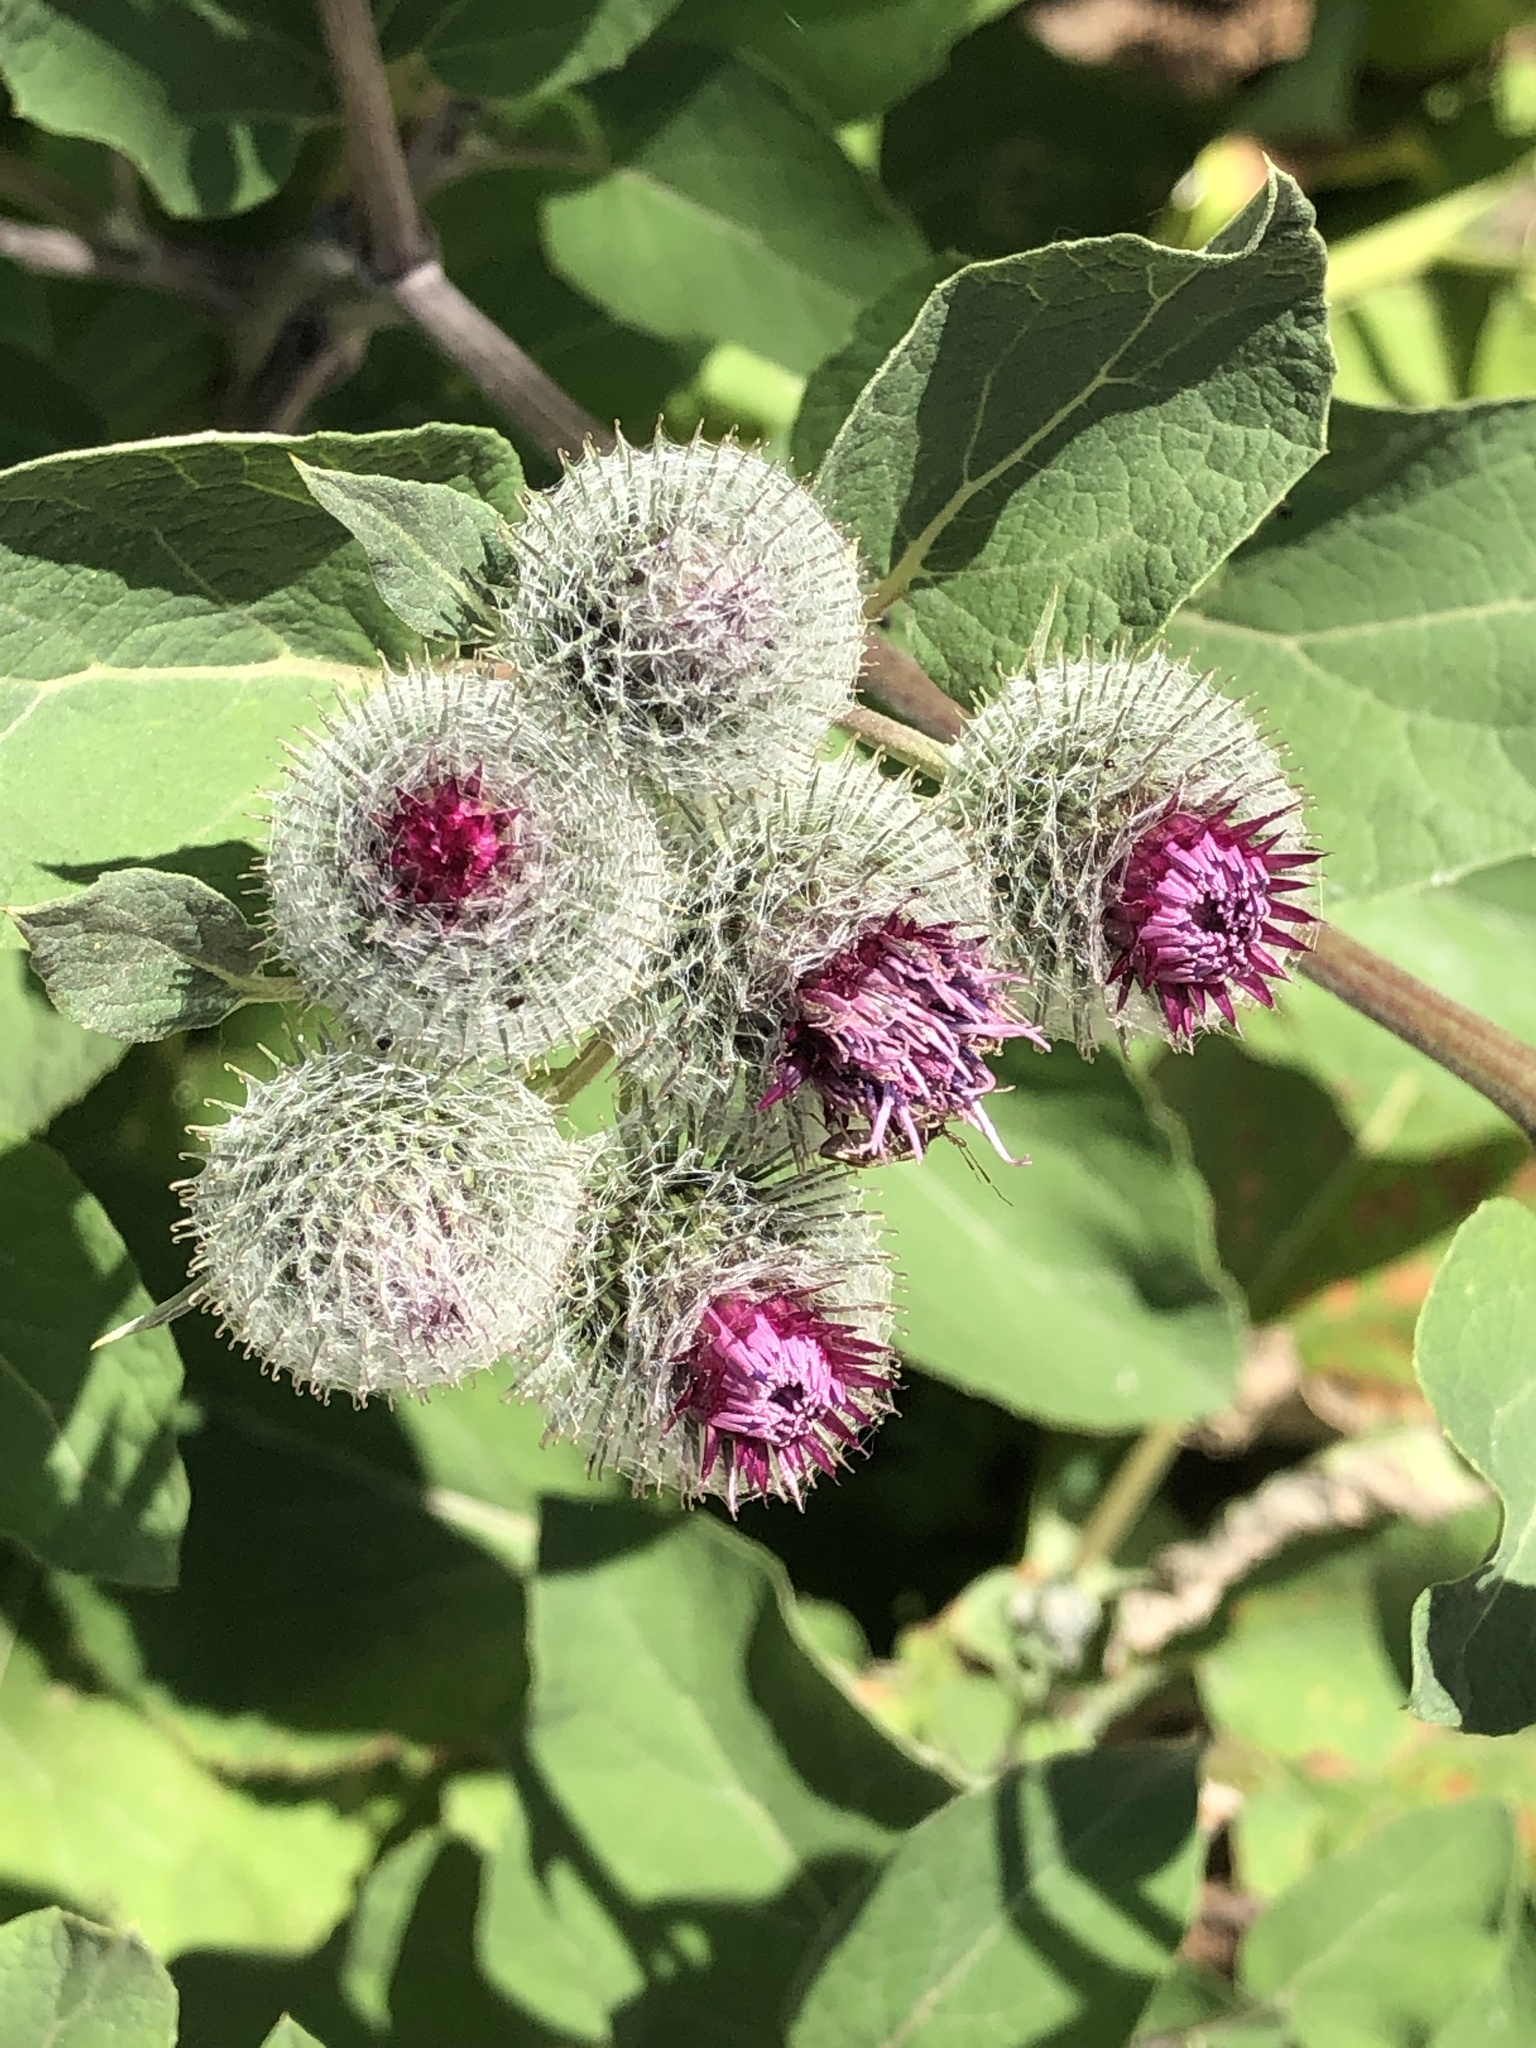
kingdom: Plantae
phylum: Tracheophyta
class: Magnoliopsida
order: Asterales
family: Asteraceae
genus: Arctium
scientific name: Arctium tomentosum
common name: Woolly burdock
